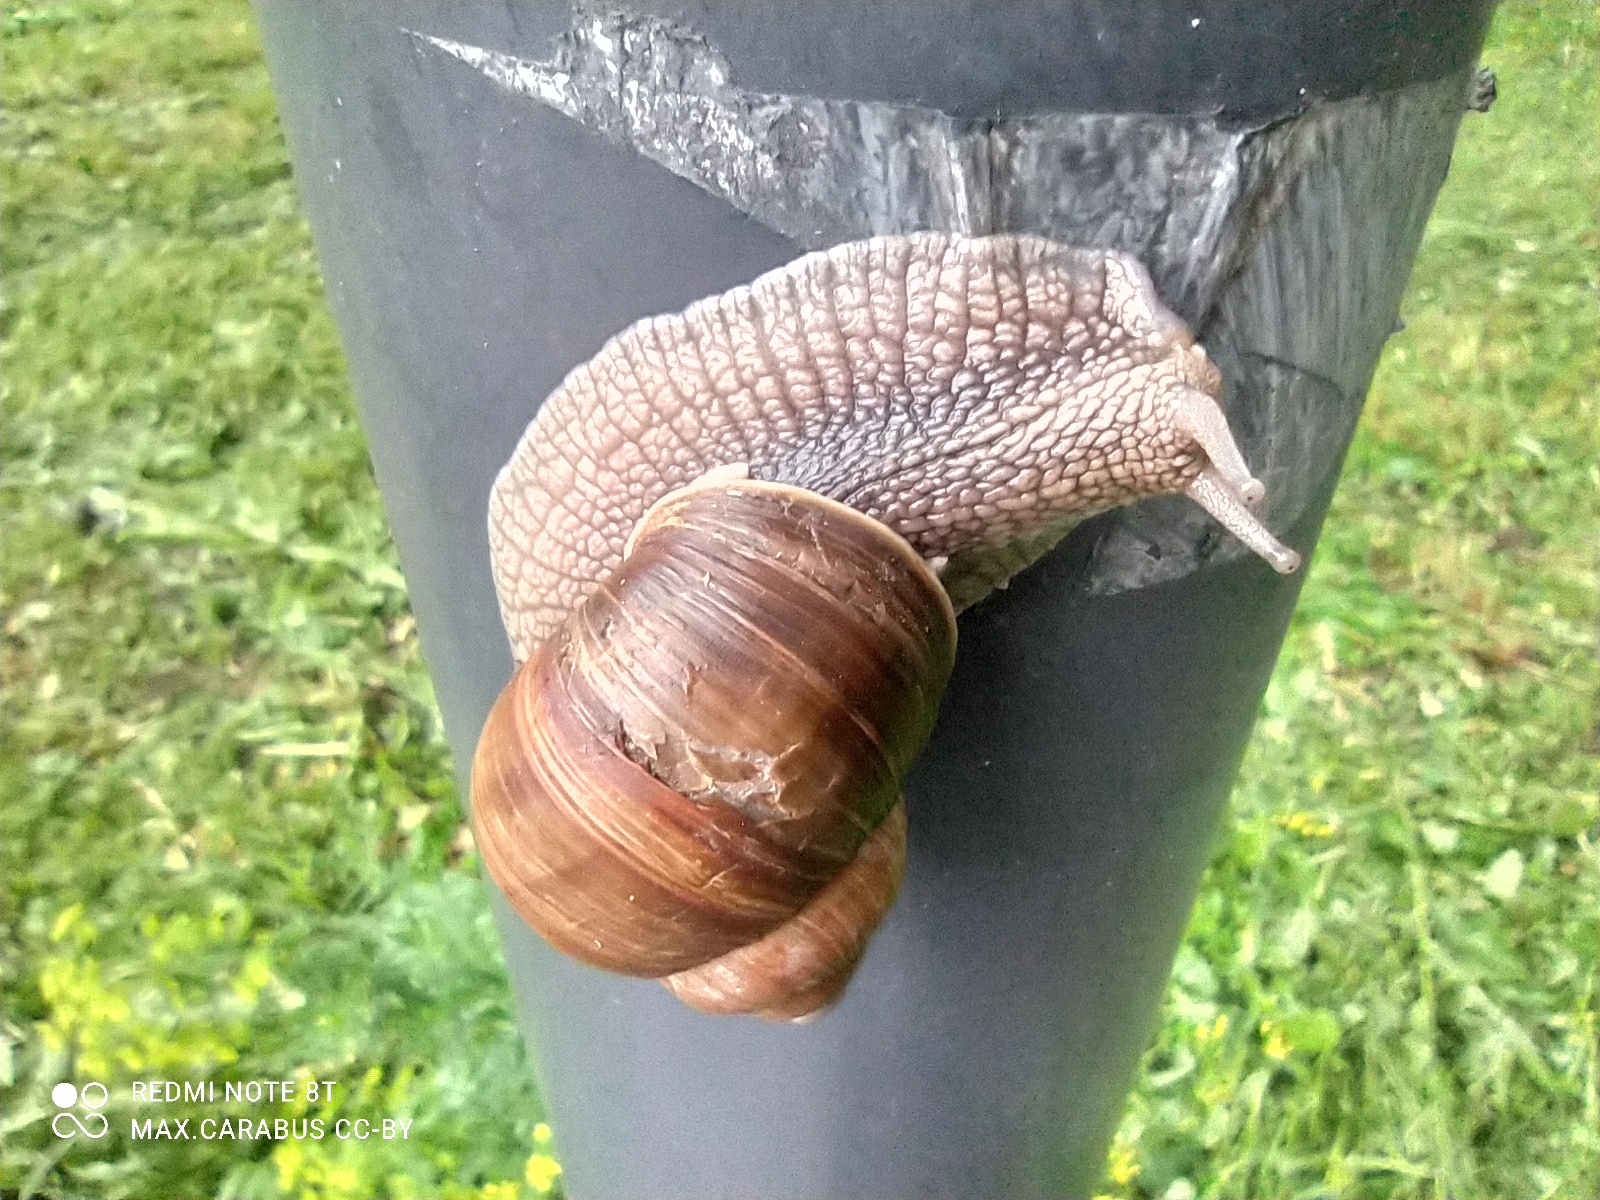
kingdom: Animalia
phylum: Mollusca
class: Gastropoda
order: Stylommatophora
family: Helicidae
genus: Helix
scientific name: Helix pomatia
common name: Roman snail
